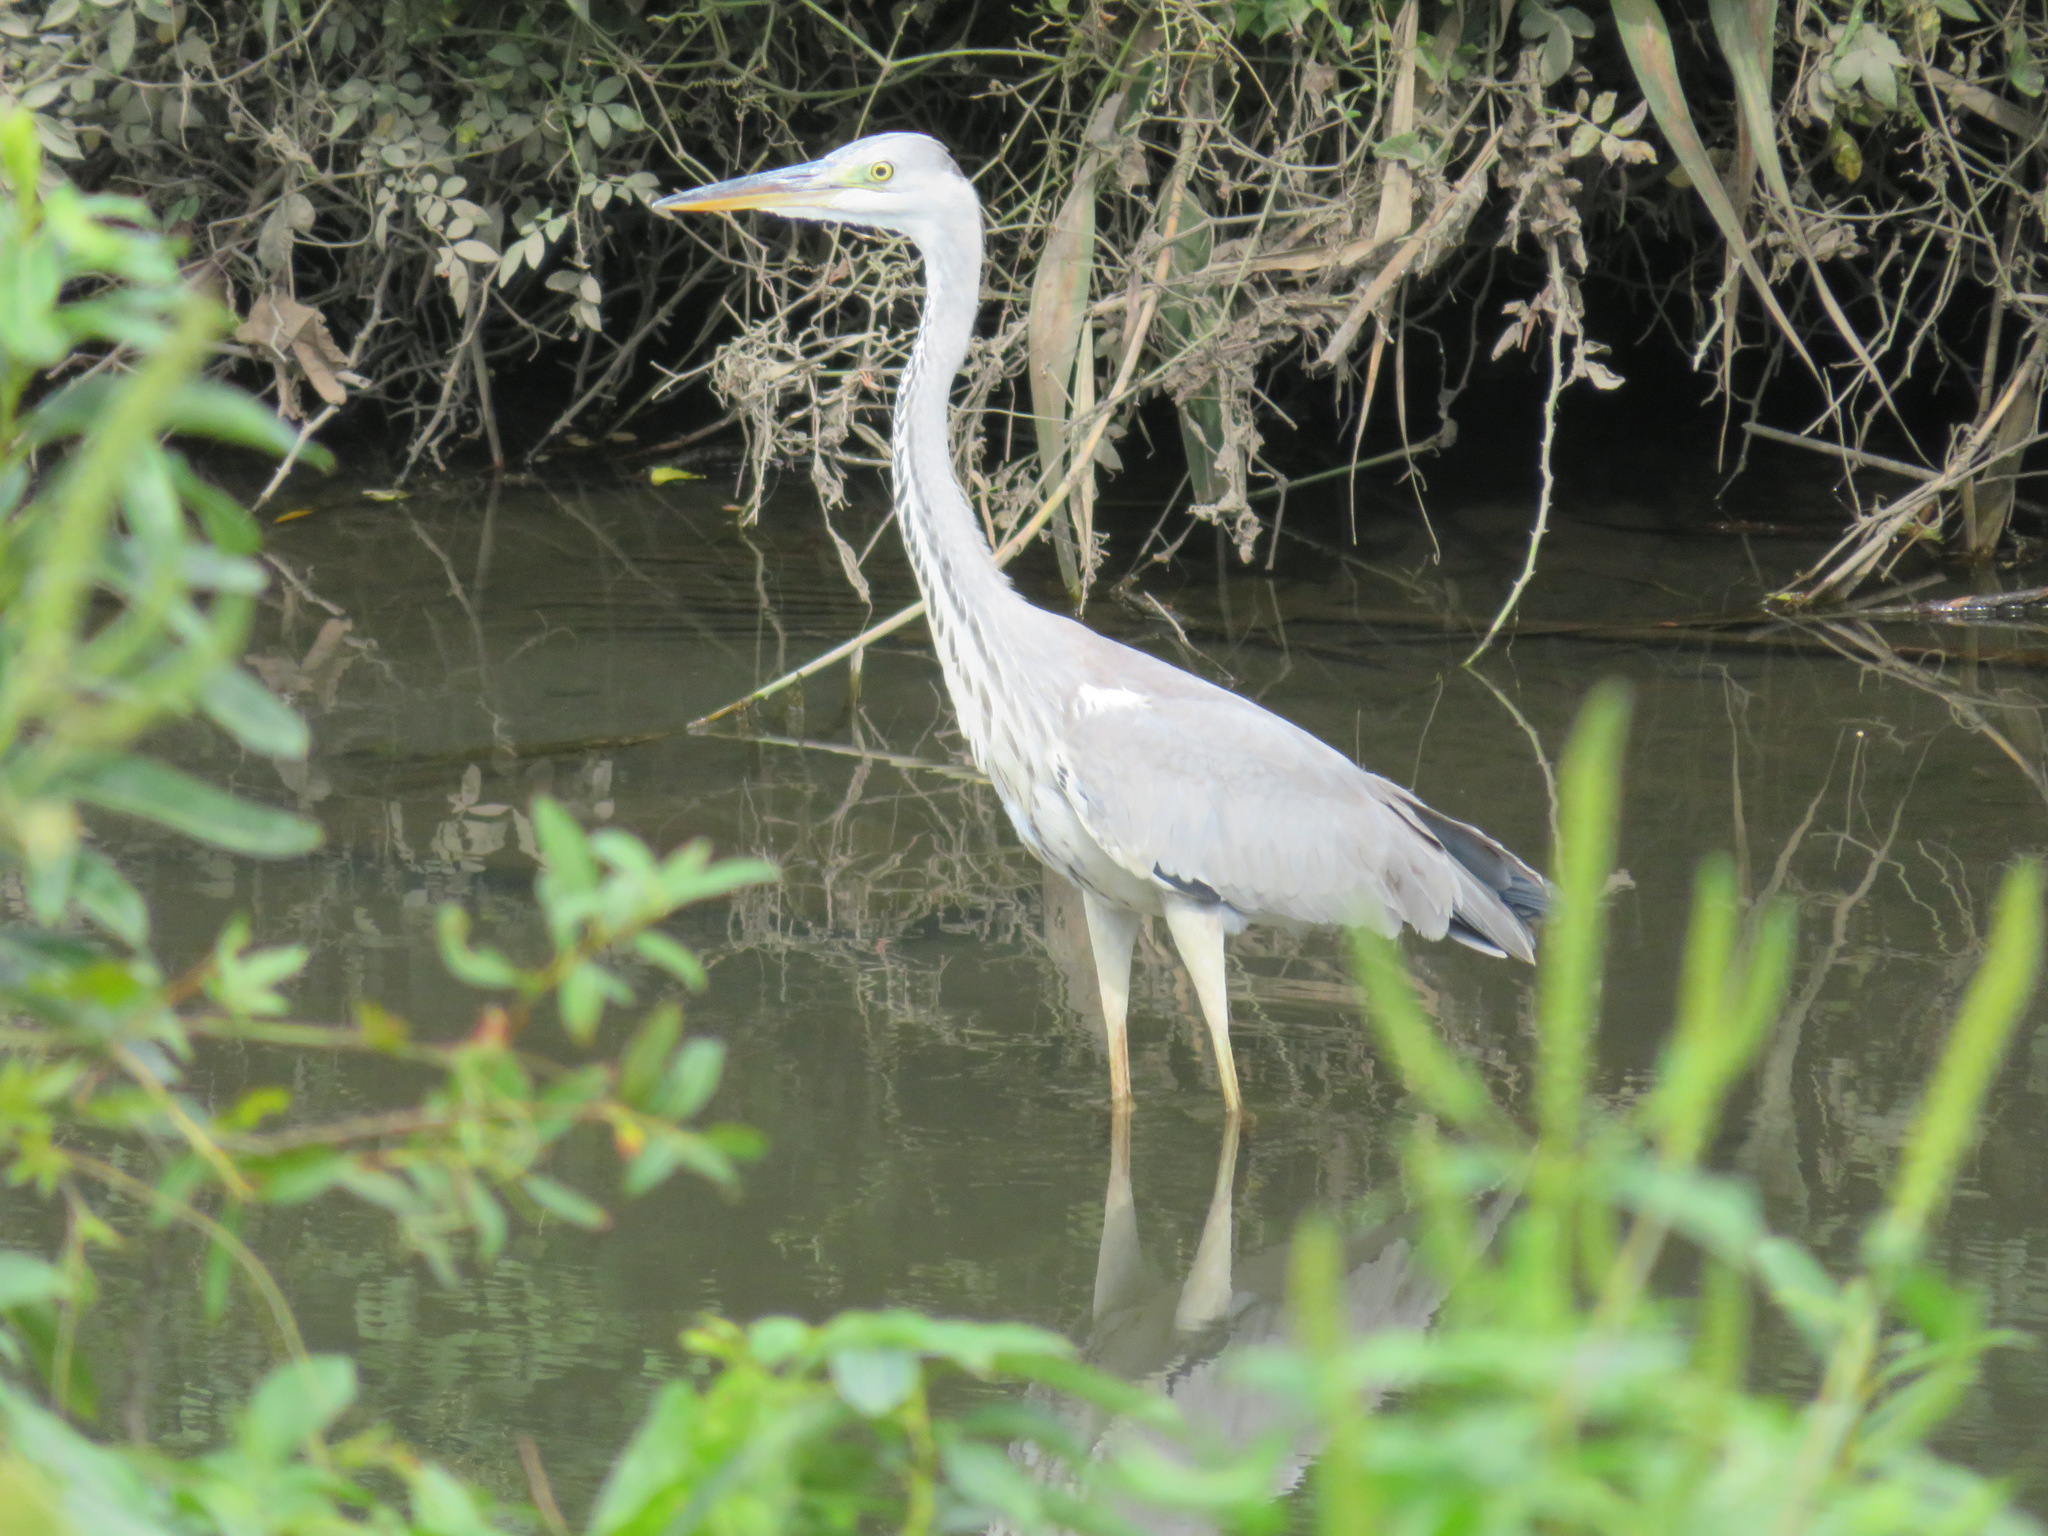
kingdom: Animalia
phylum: Chordata
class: Aves
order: Pelecaniformes
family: Ardeidae
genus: Ardea
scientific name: Ardea cinerea
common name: Grey heron
